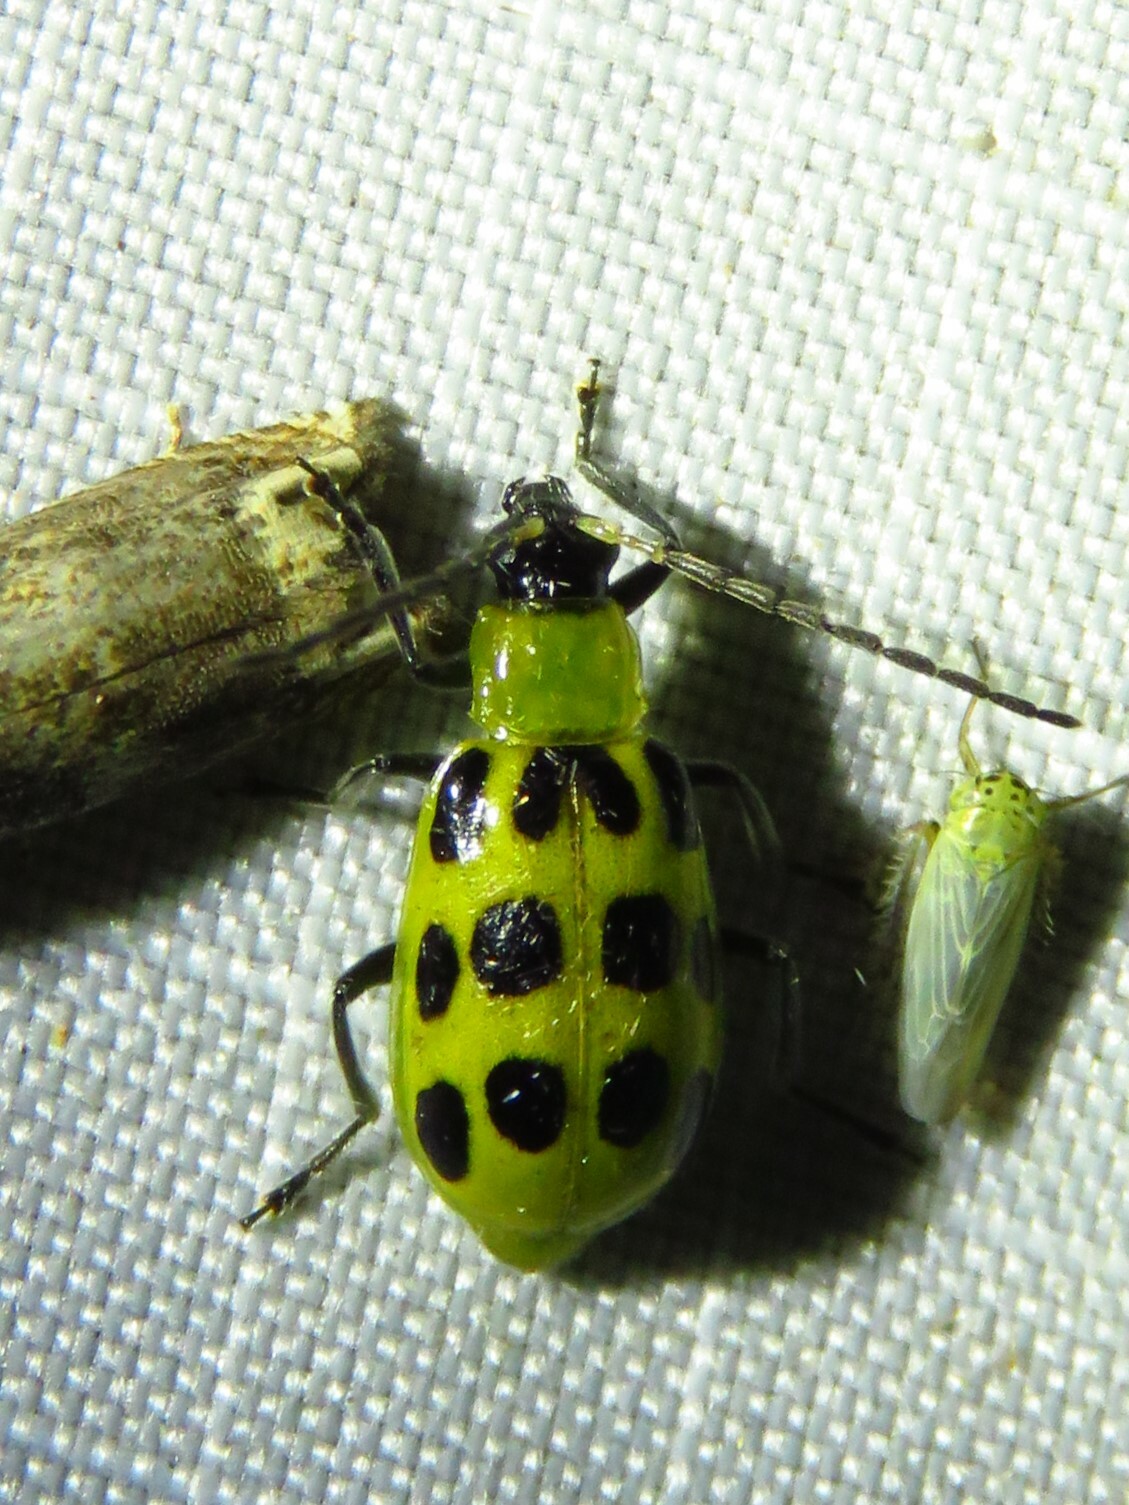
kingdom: Animalia
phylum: Arthropoda
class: Insecta
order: Coleoptera
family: Chrysomelidae
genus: Diabrotica
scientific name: Diabrotica undecimpunctata
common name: Spotted cucumber beetle
